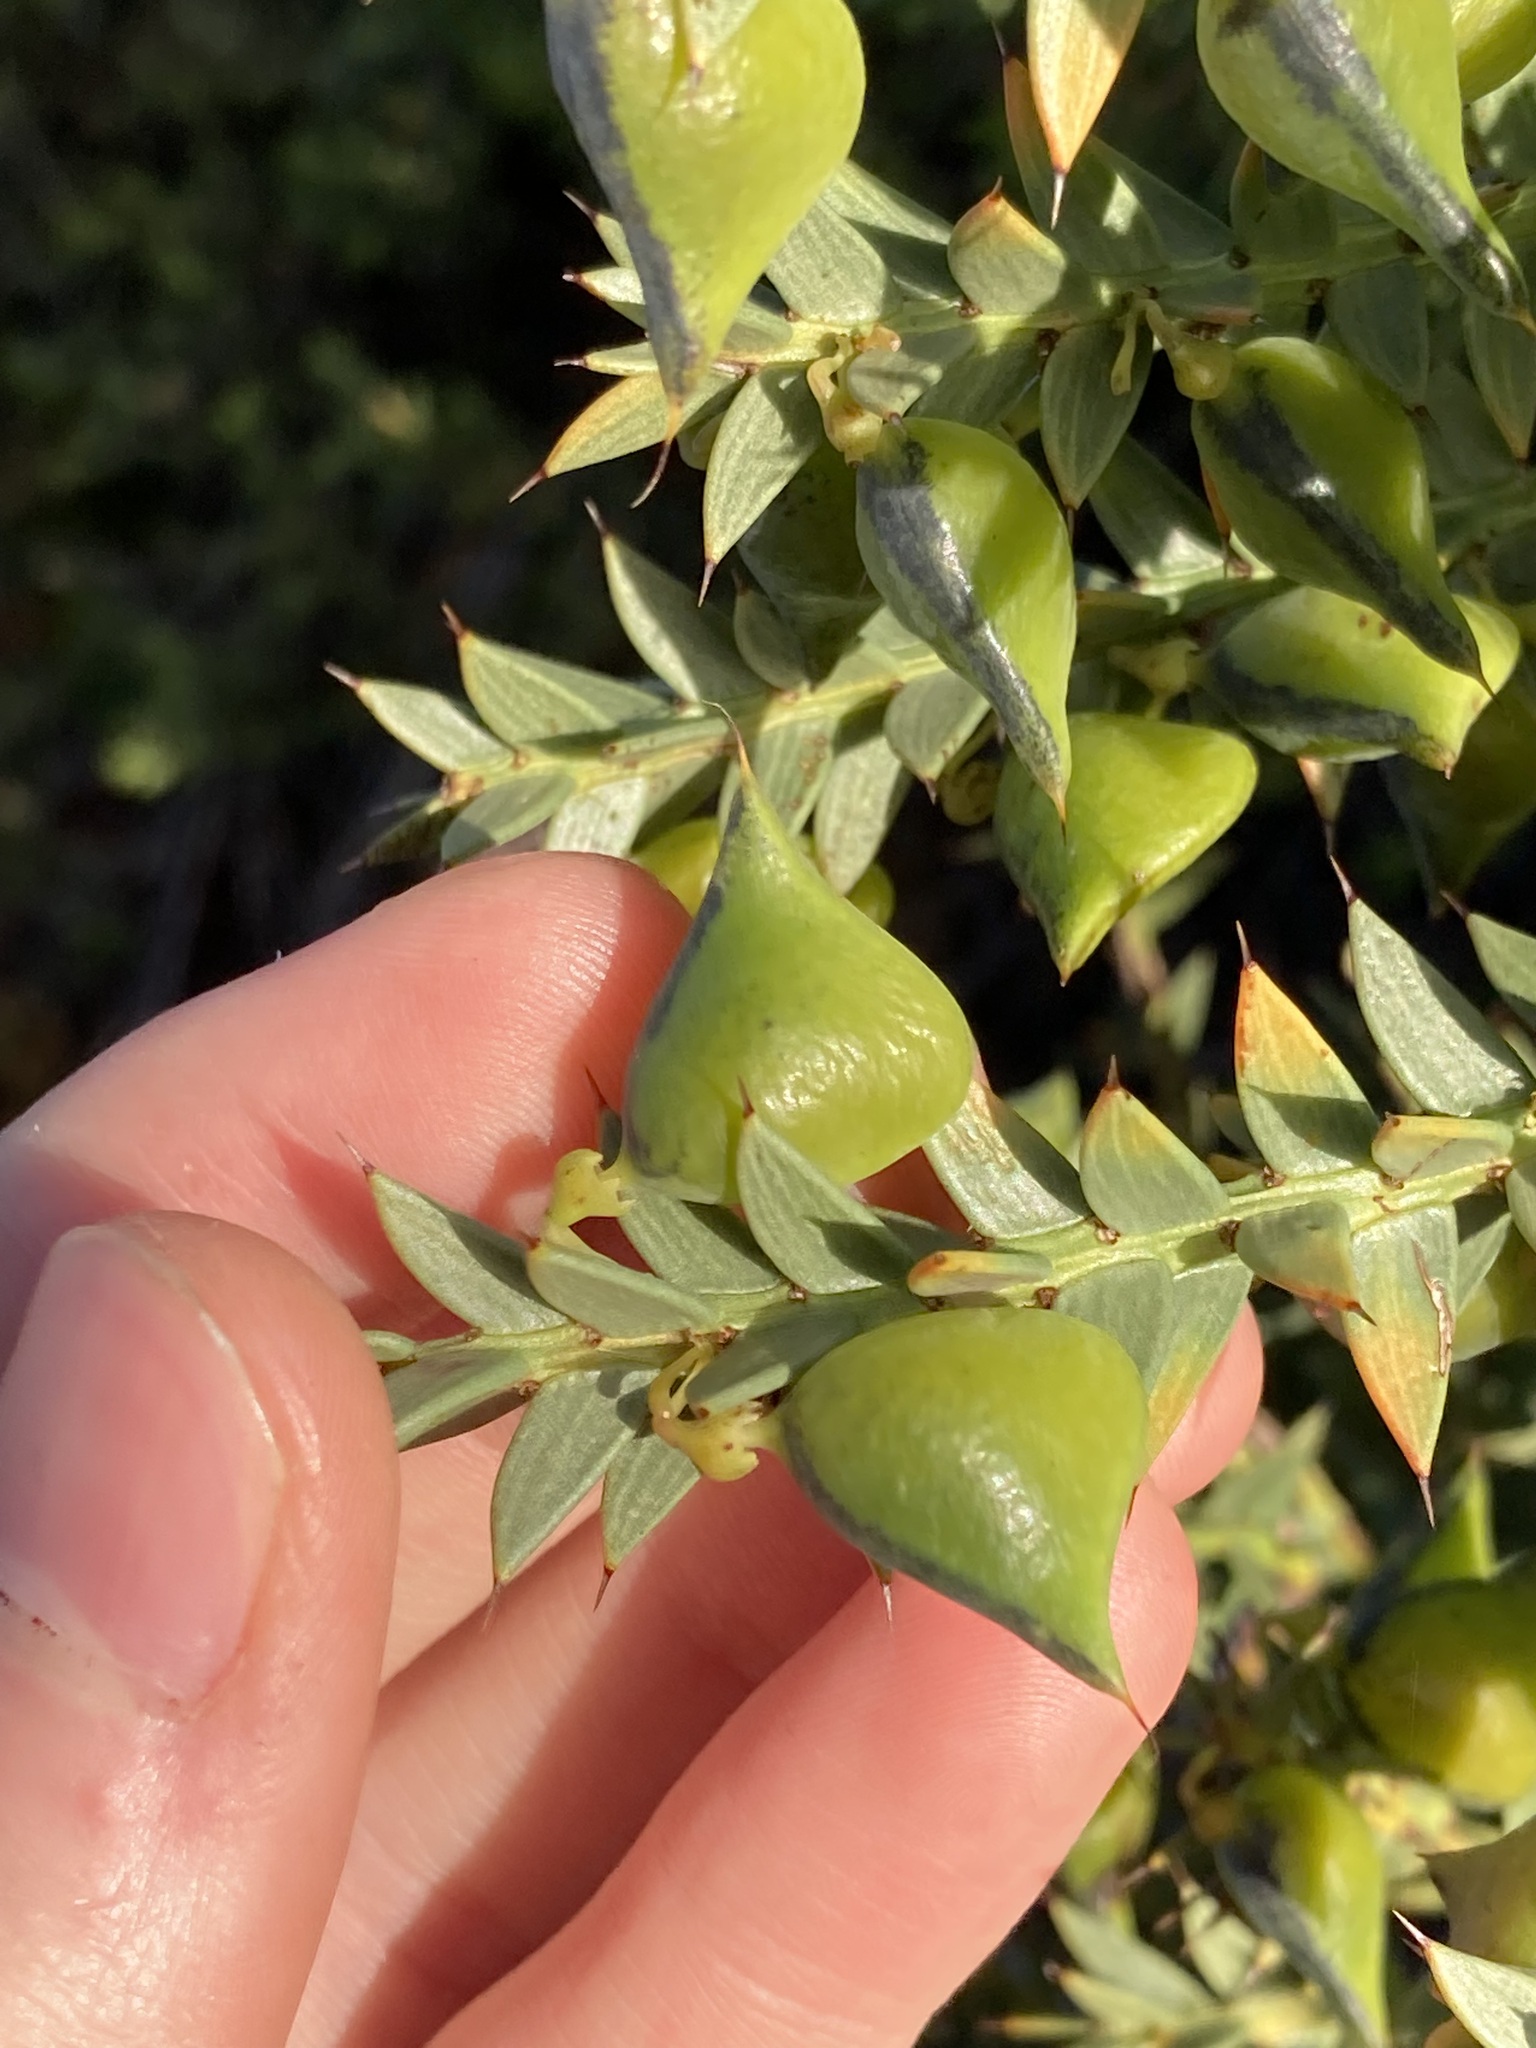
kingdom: Plantae
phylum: Tracheophyta
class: Magnoliopsida
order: Fabales
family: Fabaceae
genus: Daviesia
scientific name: Daviesia chapmanii
